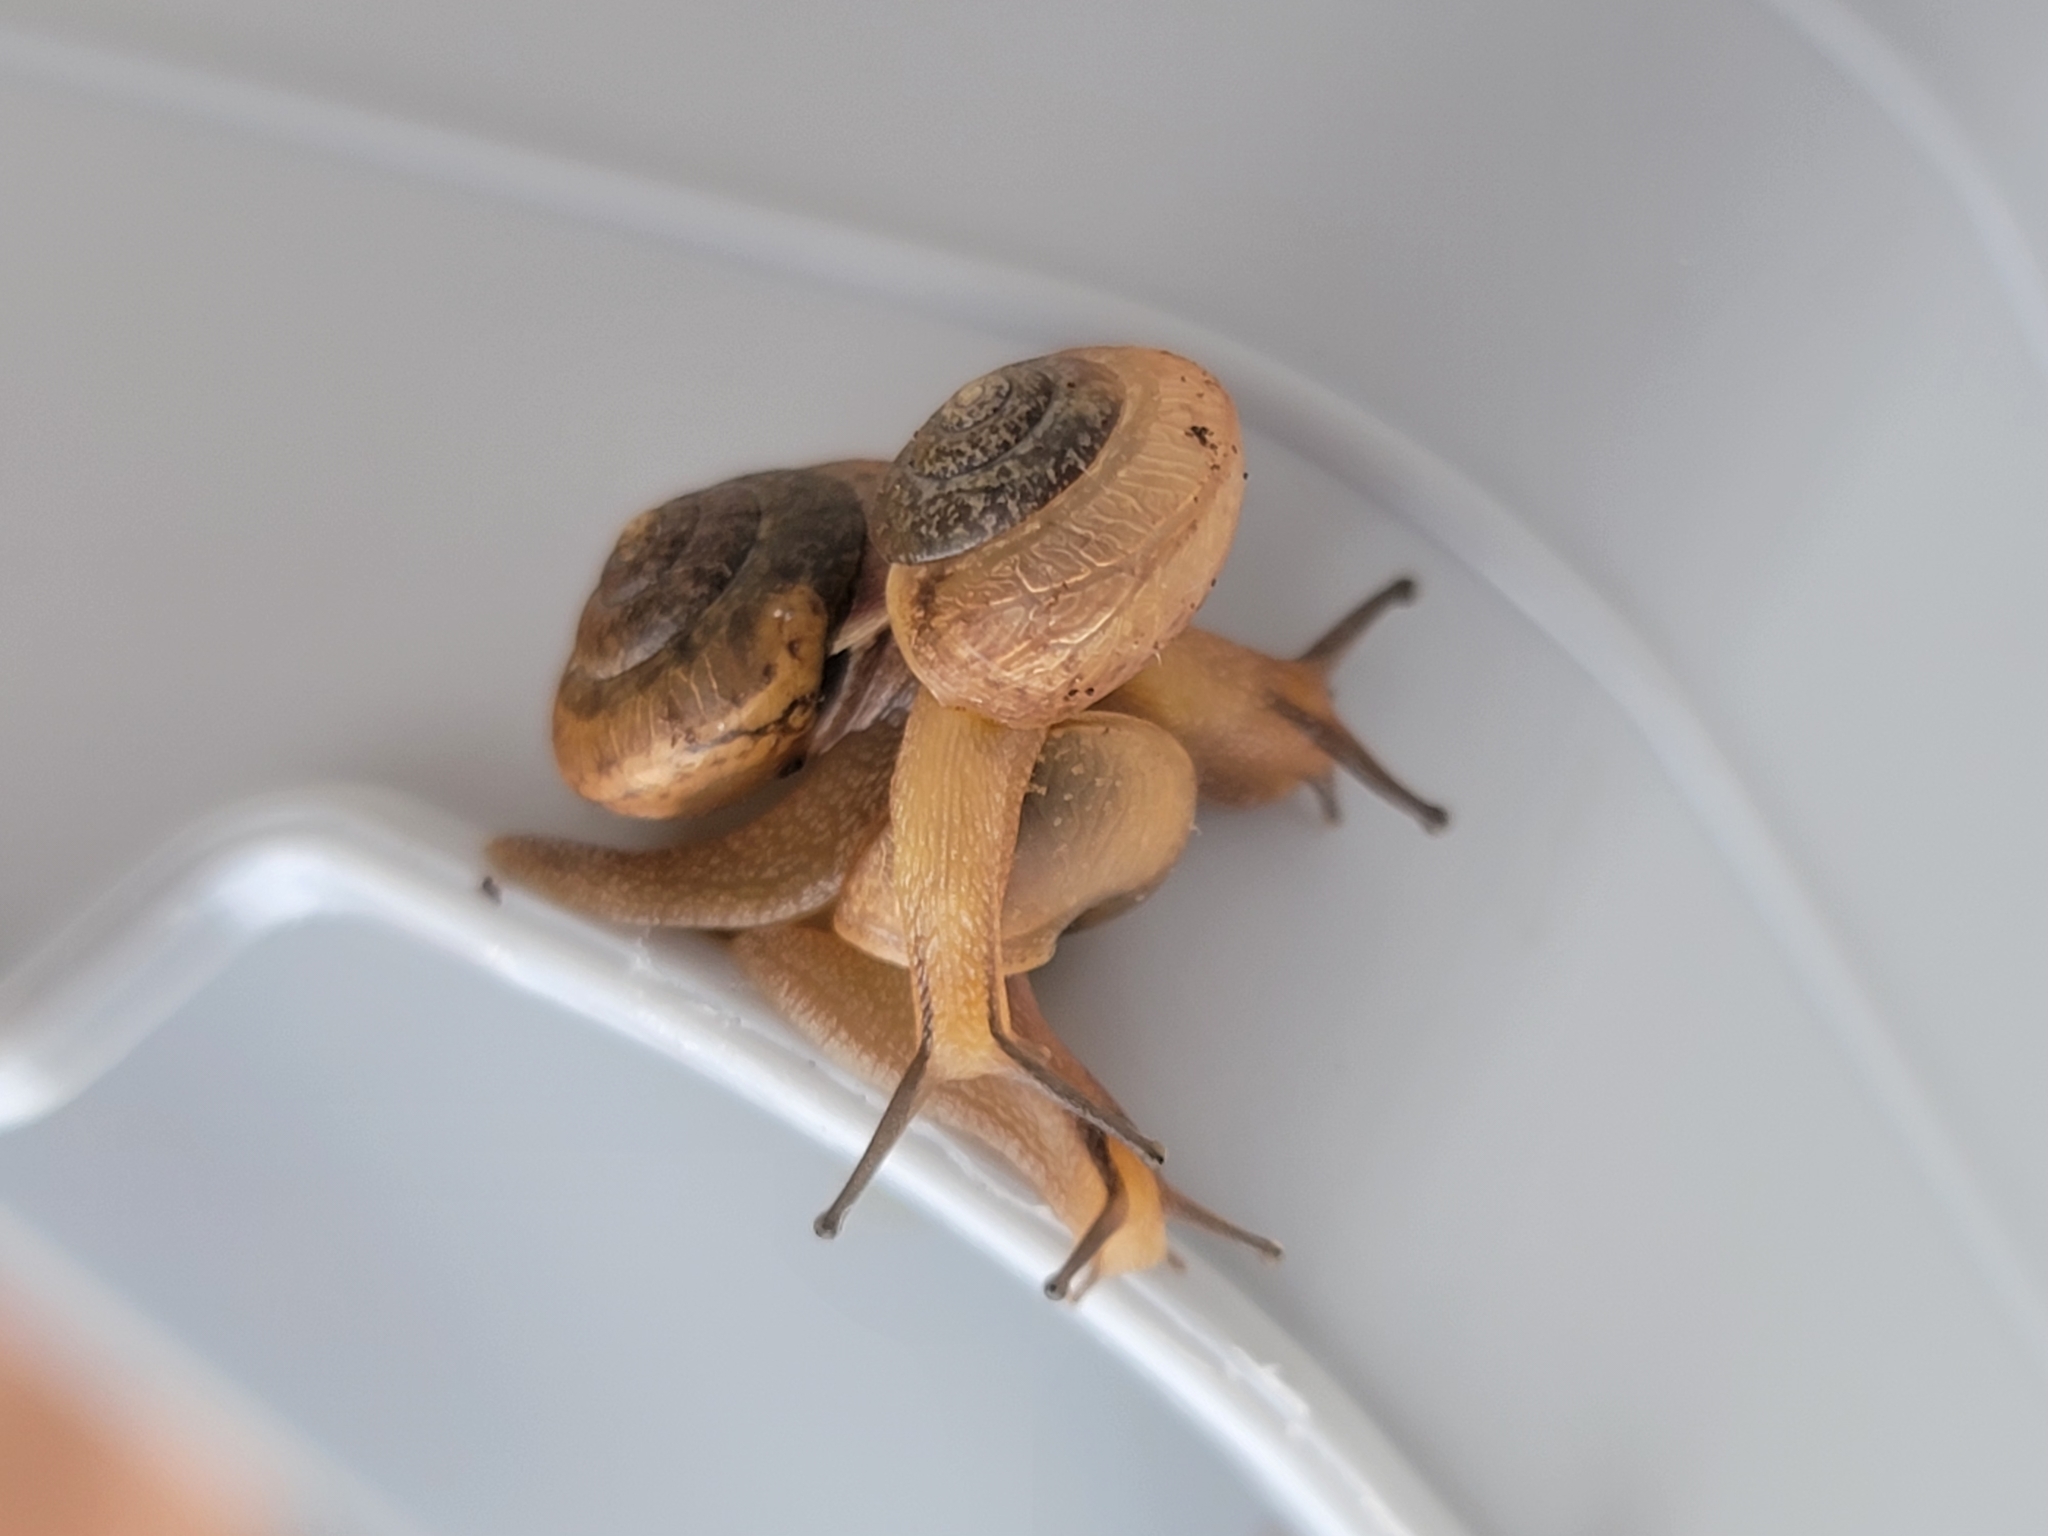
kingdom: Animalia
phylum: Mollusca
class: Gastropoda
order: Stylommatophora
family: Camaenidae
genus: Bradybaena
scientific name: Bradybaena similaris
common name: Asian trampsnail
